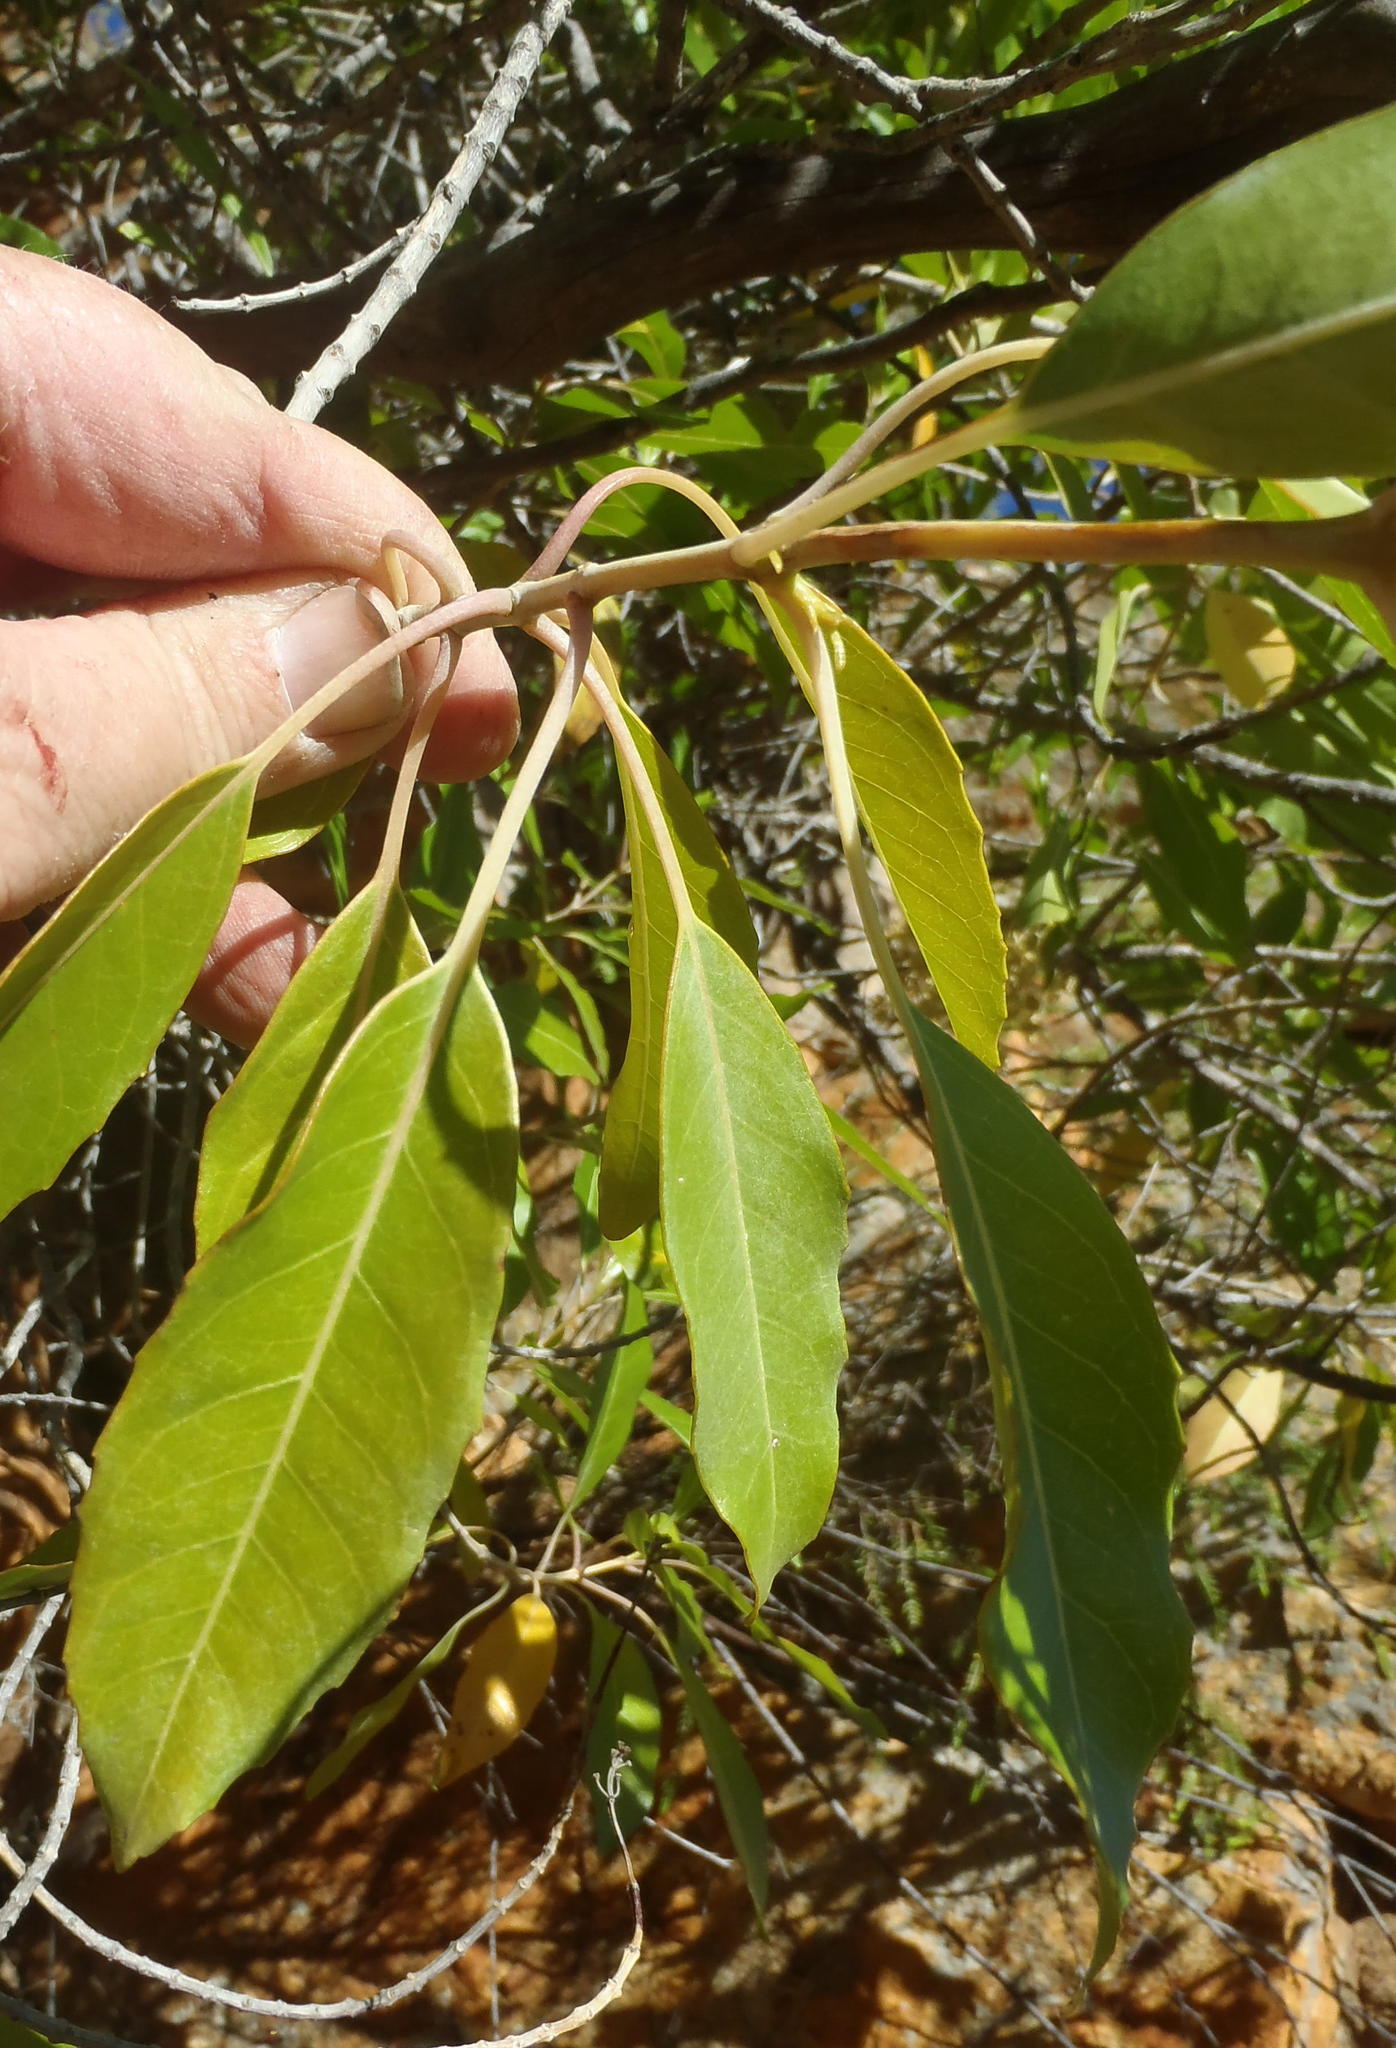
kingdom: Plantae
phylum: Tracheophyta
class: Magnoliopsida
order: Lamiales
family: Stilbaceae
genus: Nuxia
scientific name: Nuxia floribunda
